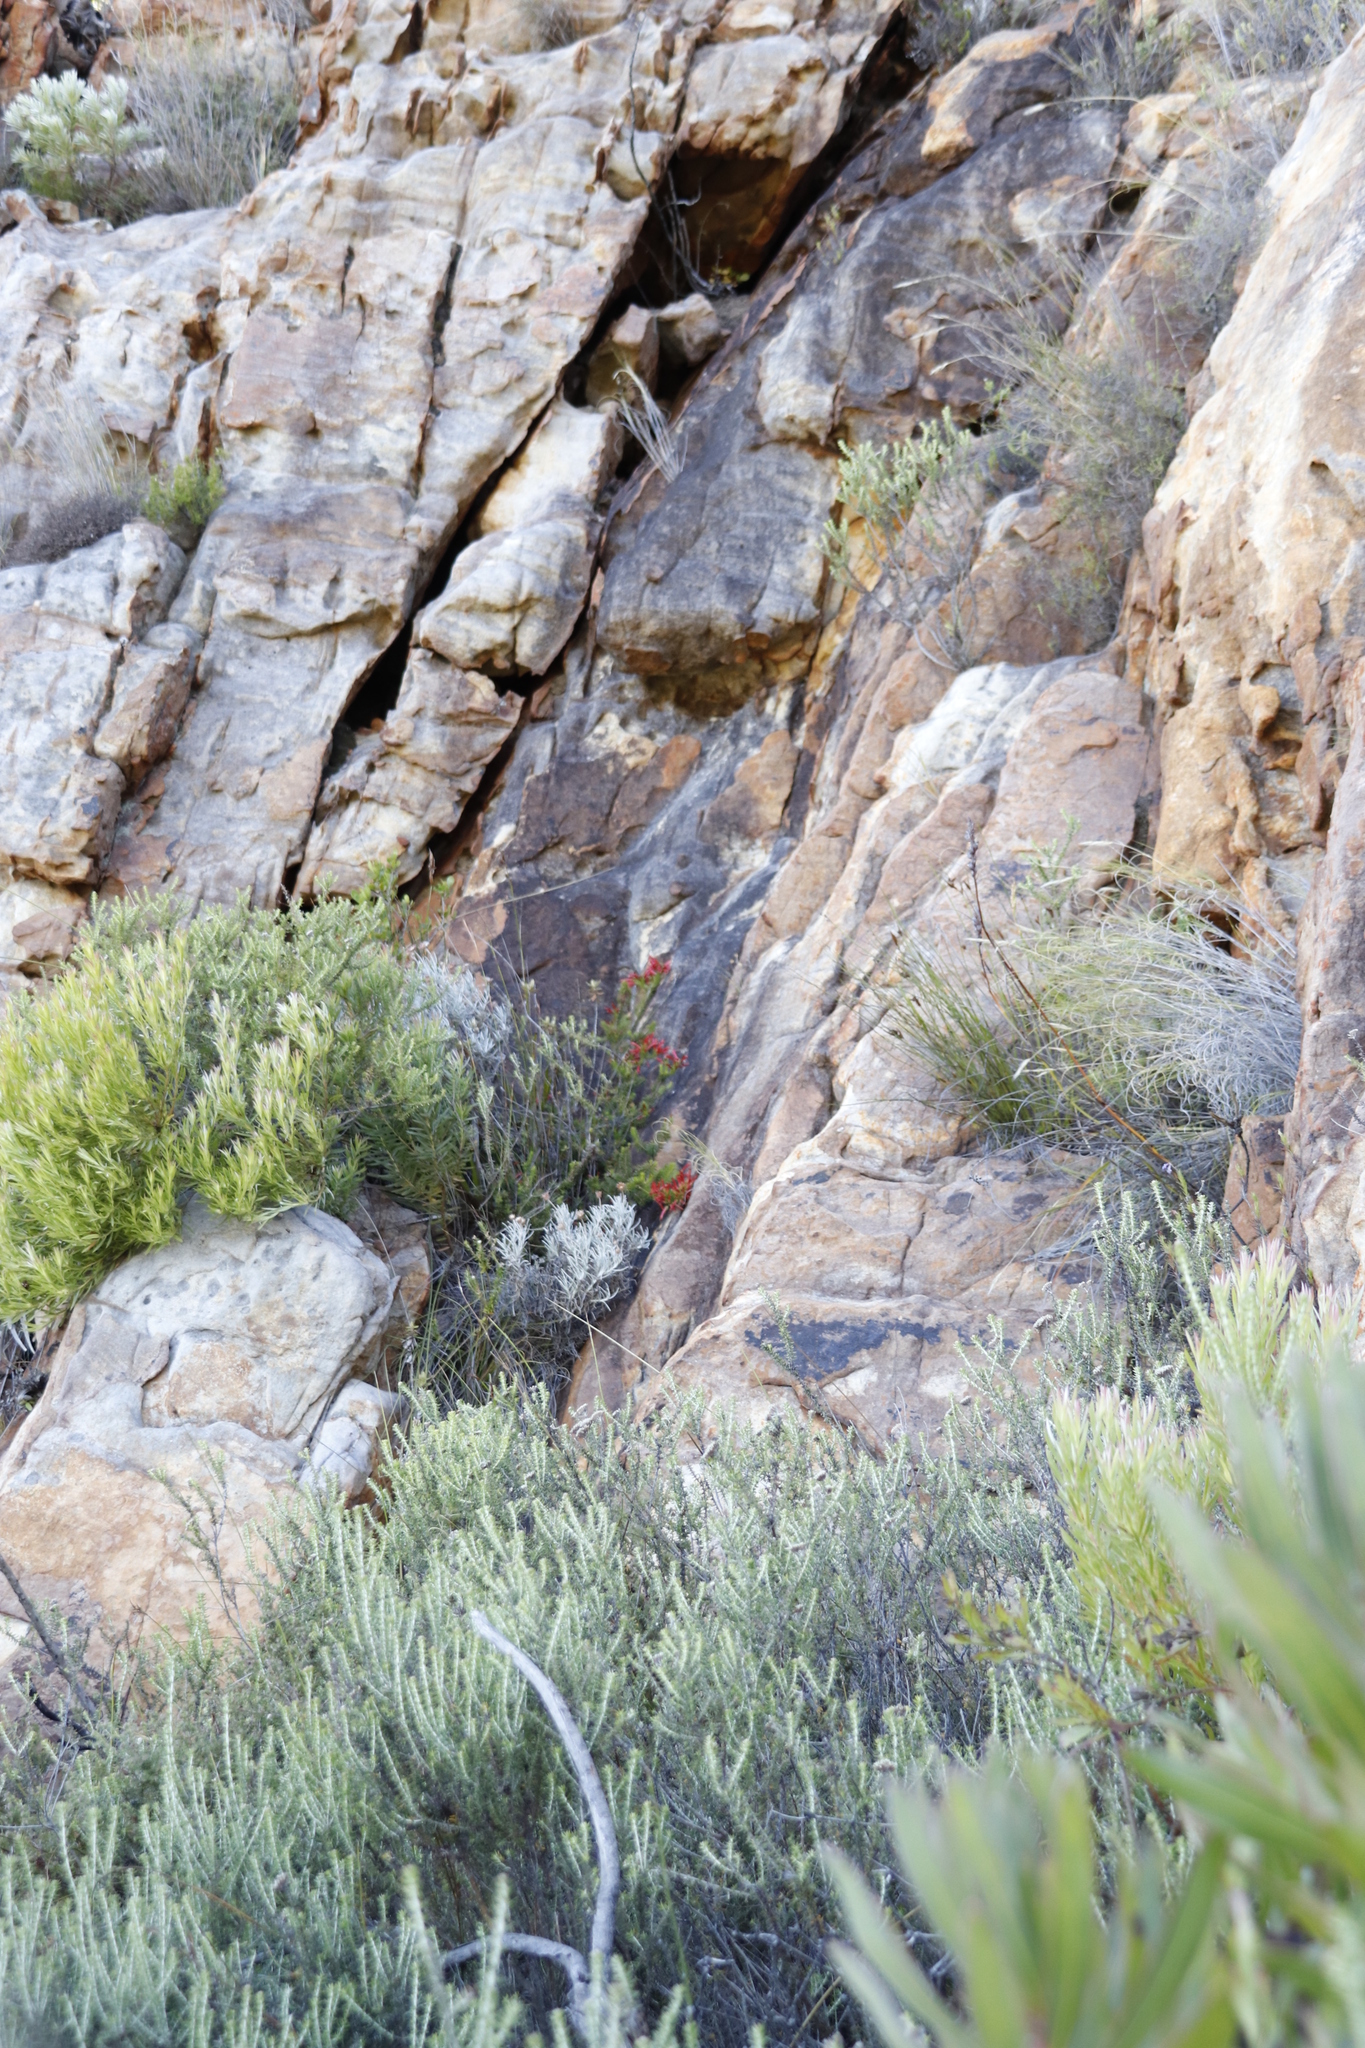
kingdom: Plantae
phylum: Tracheophyta
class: Magnoliopsida
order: Ericales
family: Ericaceae
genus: Erica
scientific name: Erica nevillei
